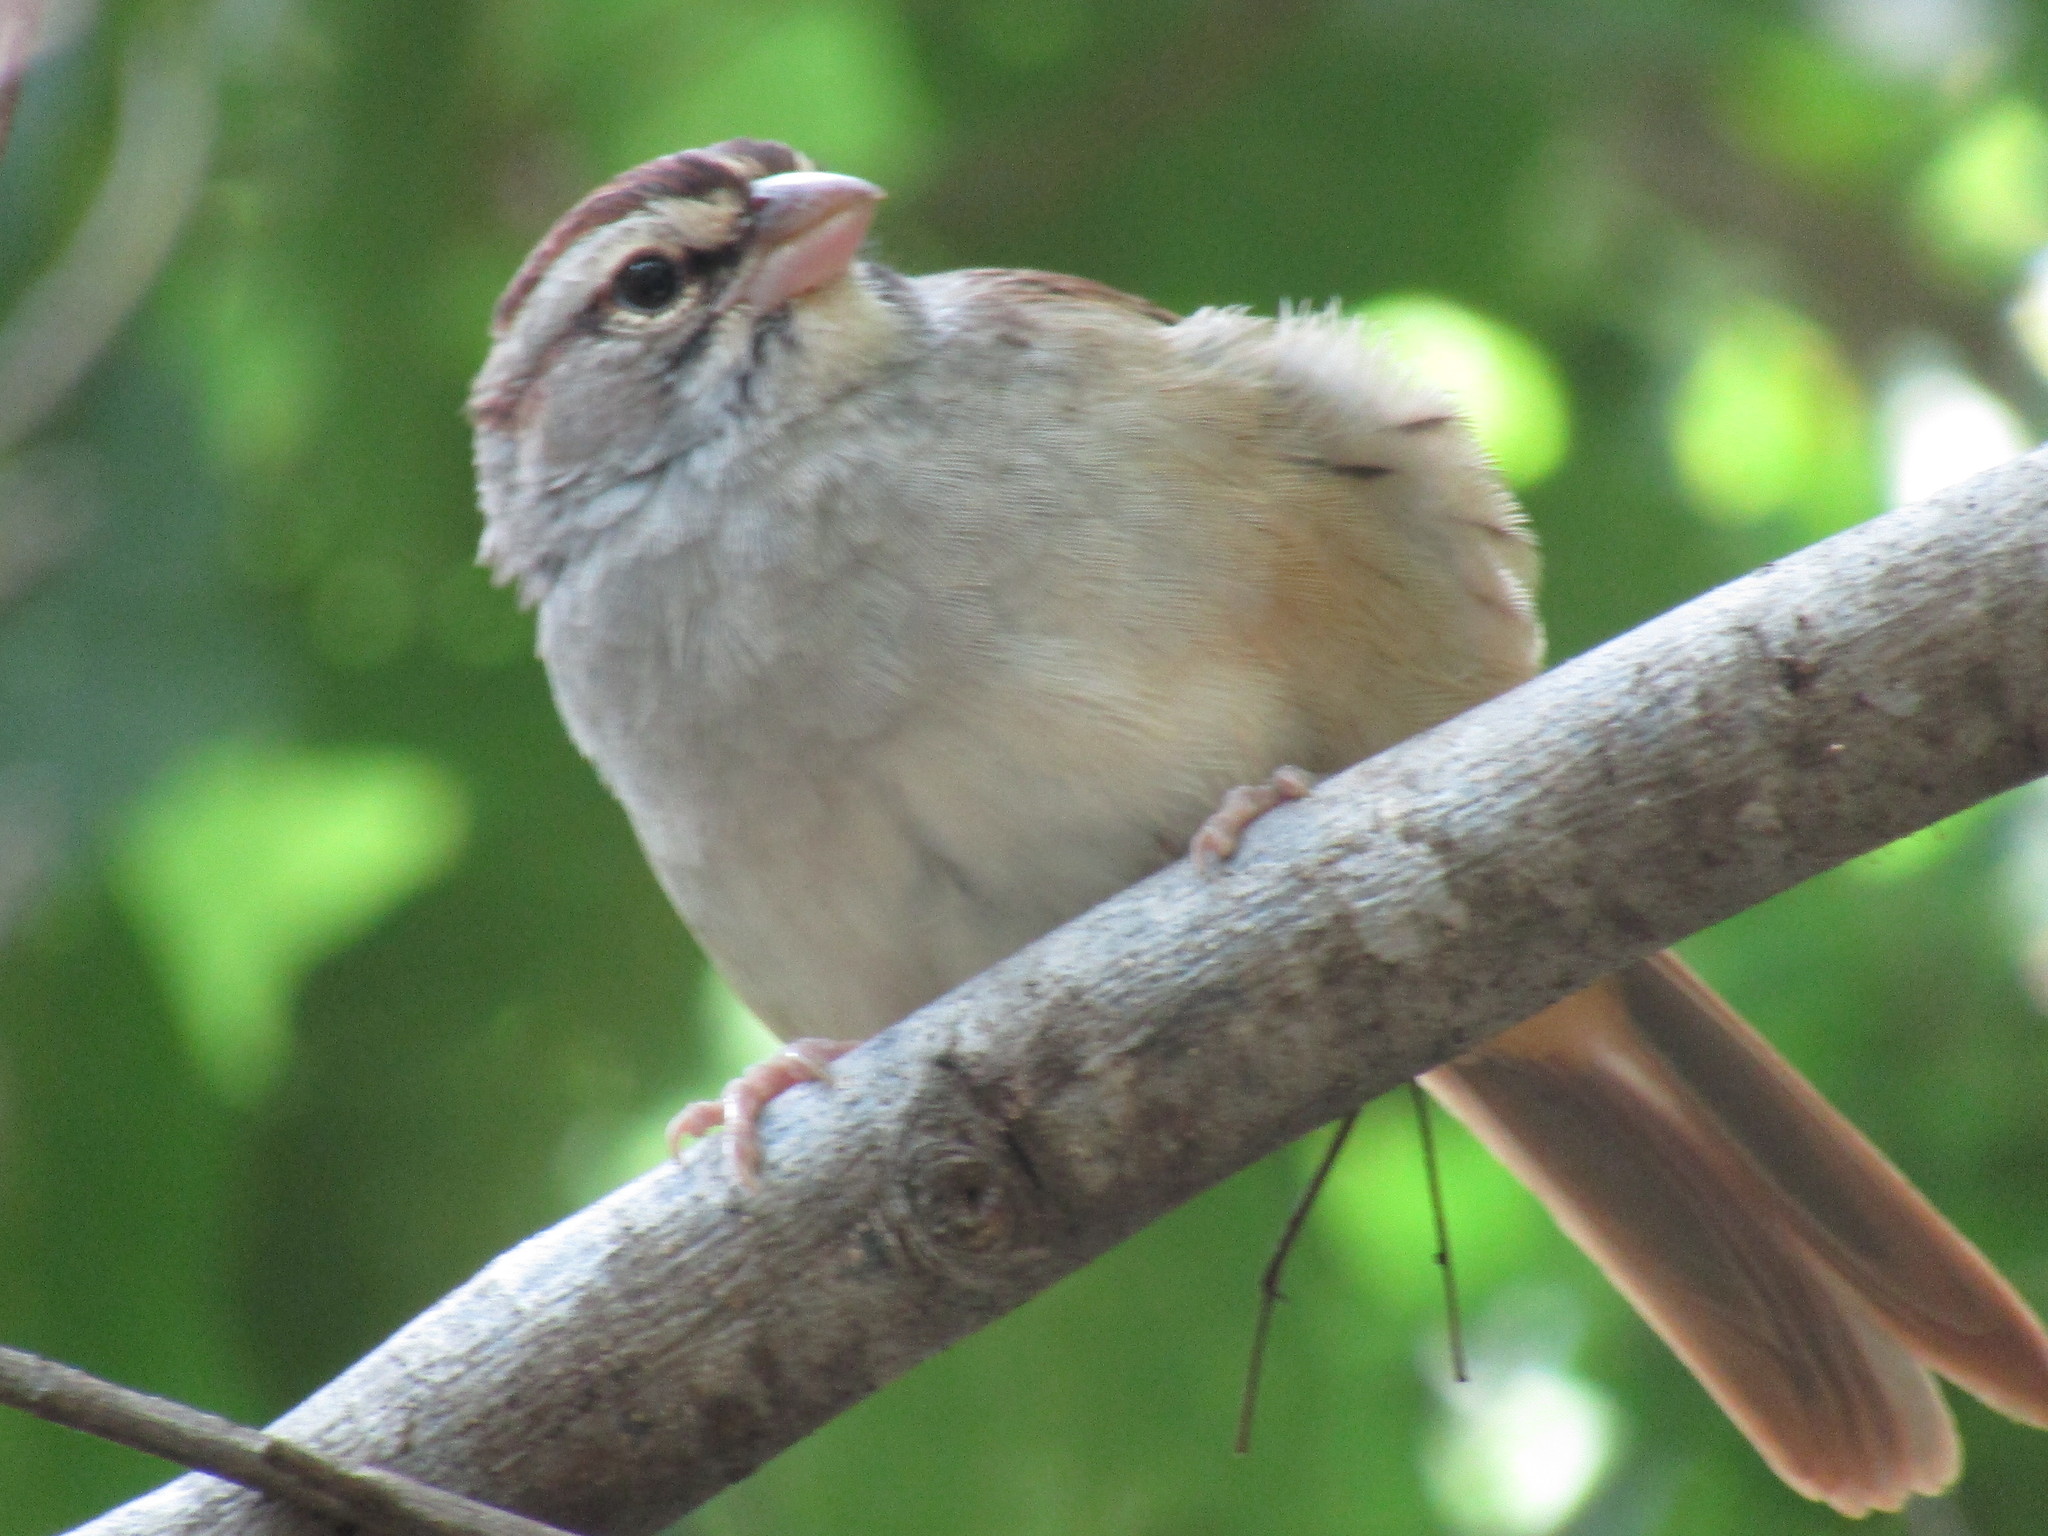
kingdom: Animalia
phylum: Chordata
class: Aves
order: Passeriformes
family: Passerellidae
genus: Peucaea
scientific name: Peucaea sumichrasti
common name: Cinnamon-tailed sparrow
